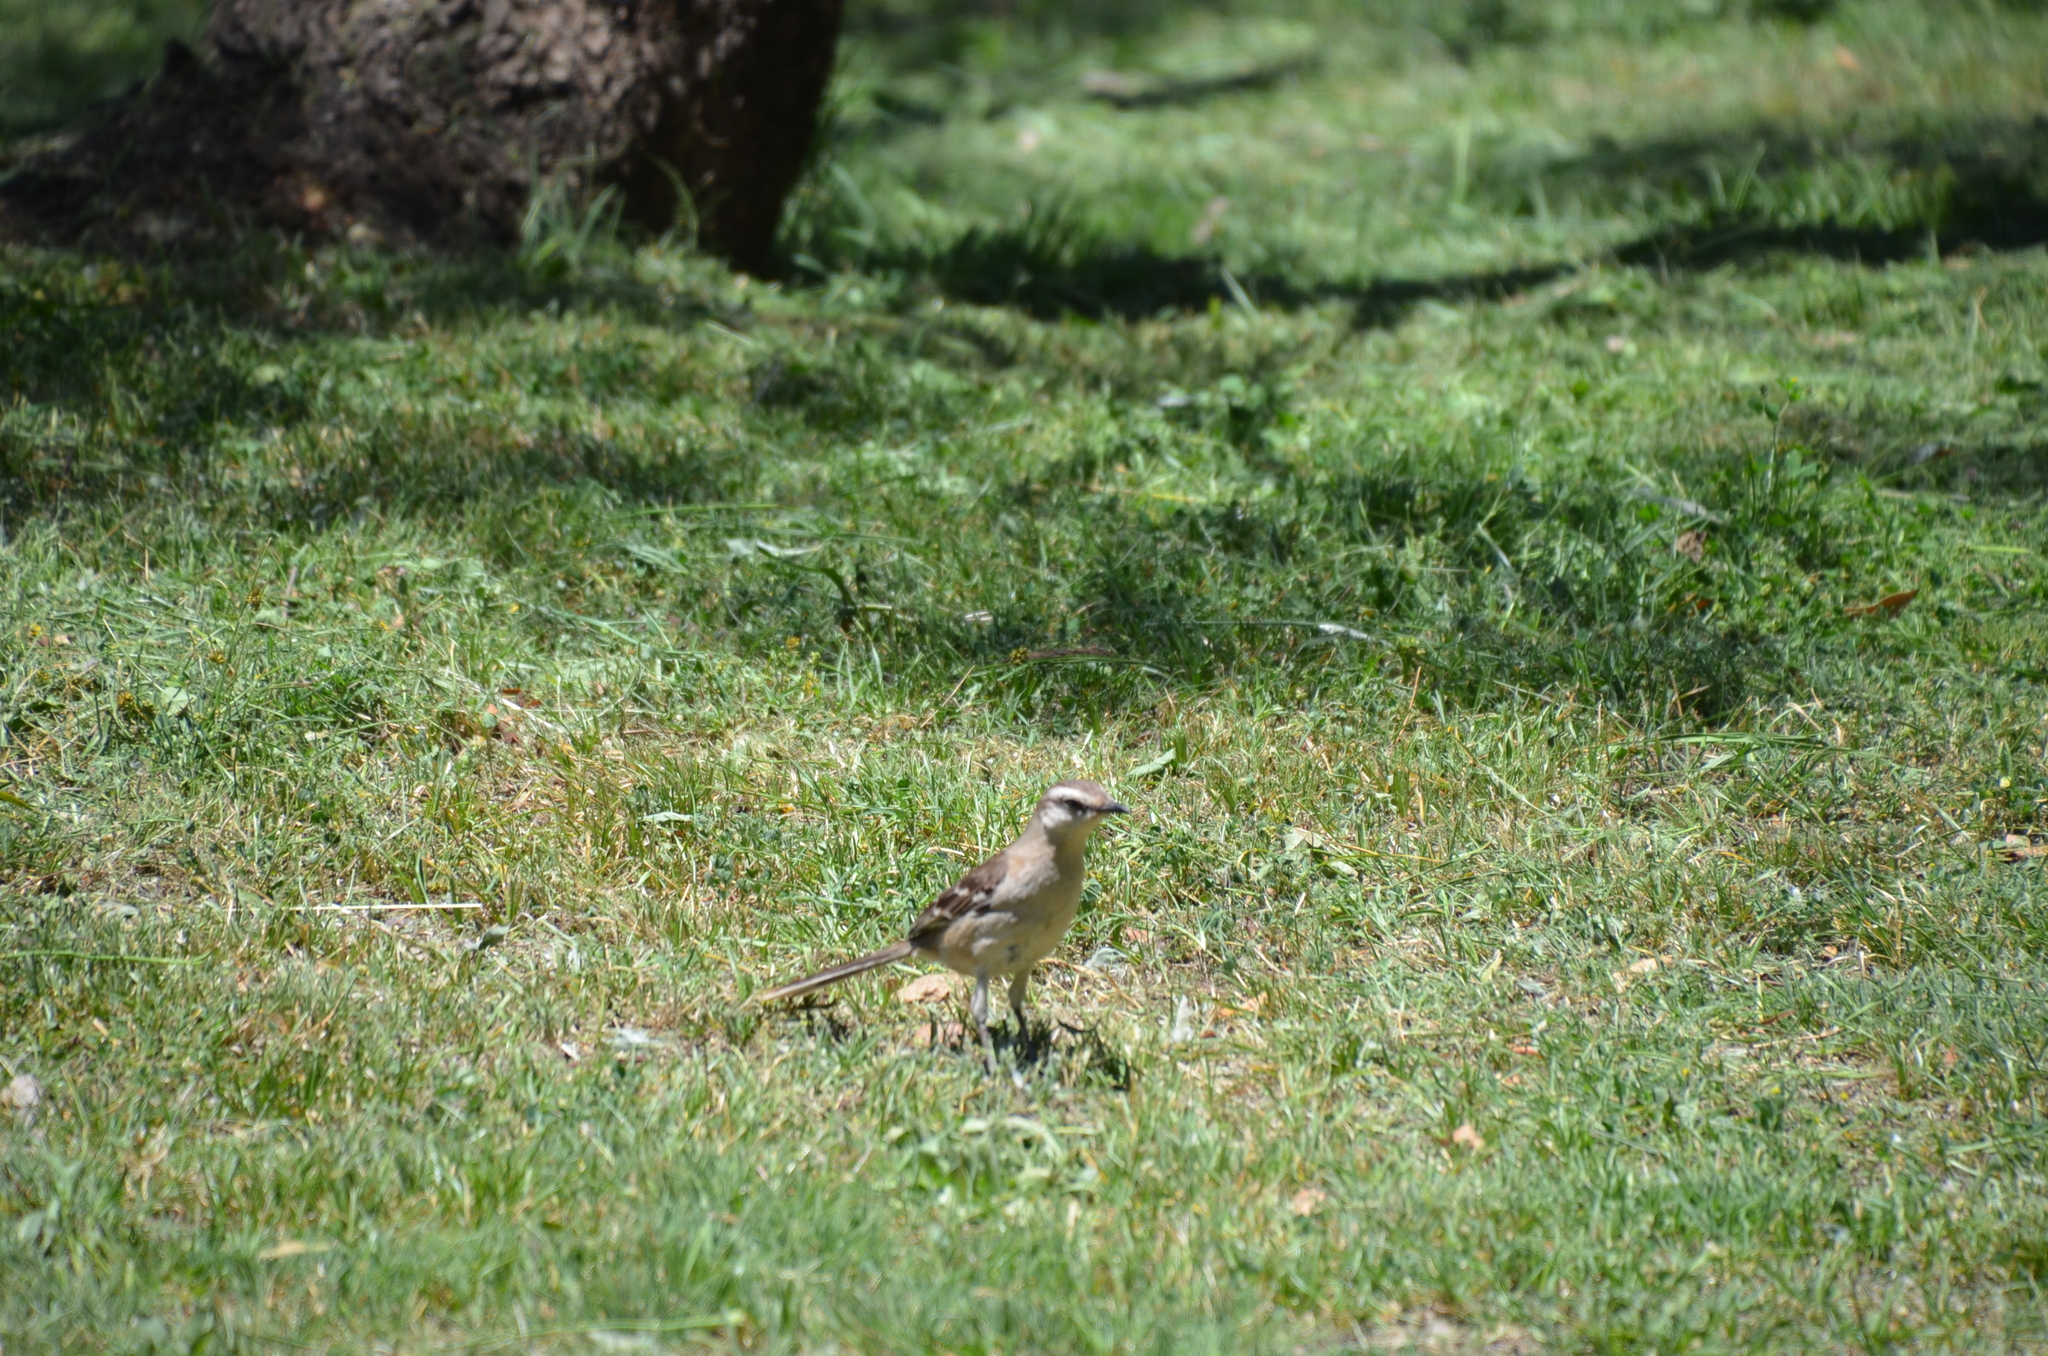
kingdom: Animalia
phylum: Chordata
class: Aves
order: Passeriformes
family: Mimidae
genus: Mimus
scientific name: Mimus saturninus
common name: Chalk-browed mockingbird
